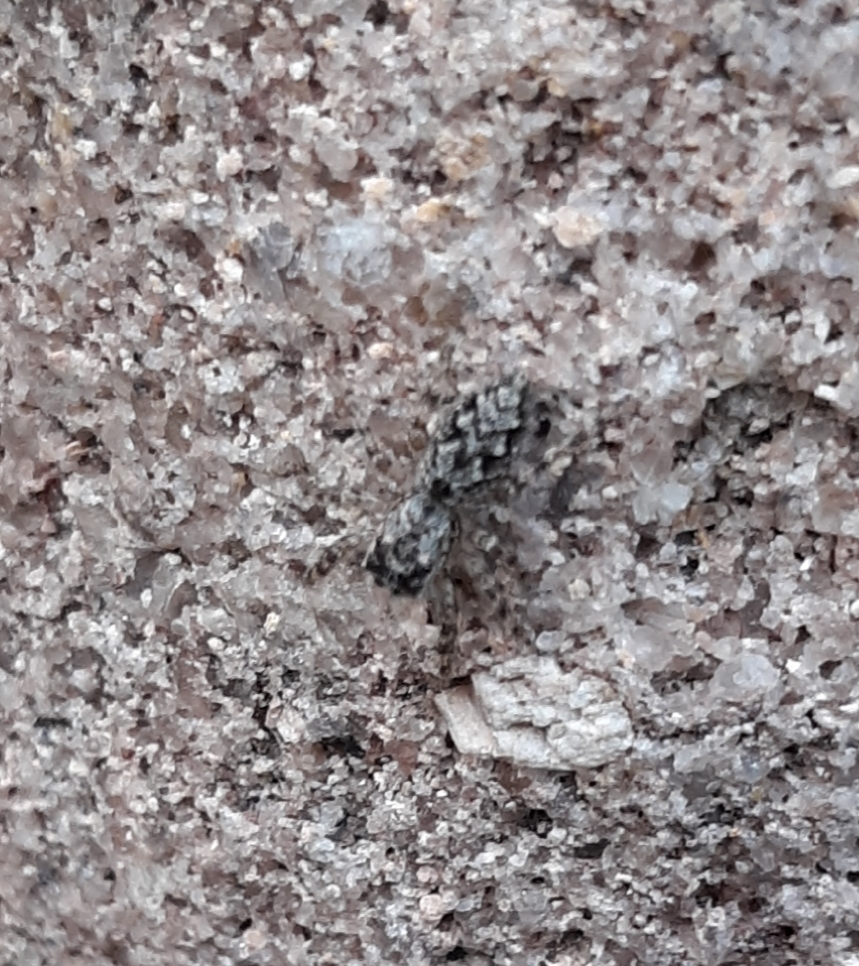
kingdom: Animalia
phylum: Arthropoda
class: Arachnida
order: Araneae
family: Salticidae
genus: Platycryptus
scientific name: Platycryptus undatus
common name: Tan jumping spider
